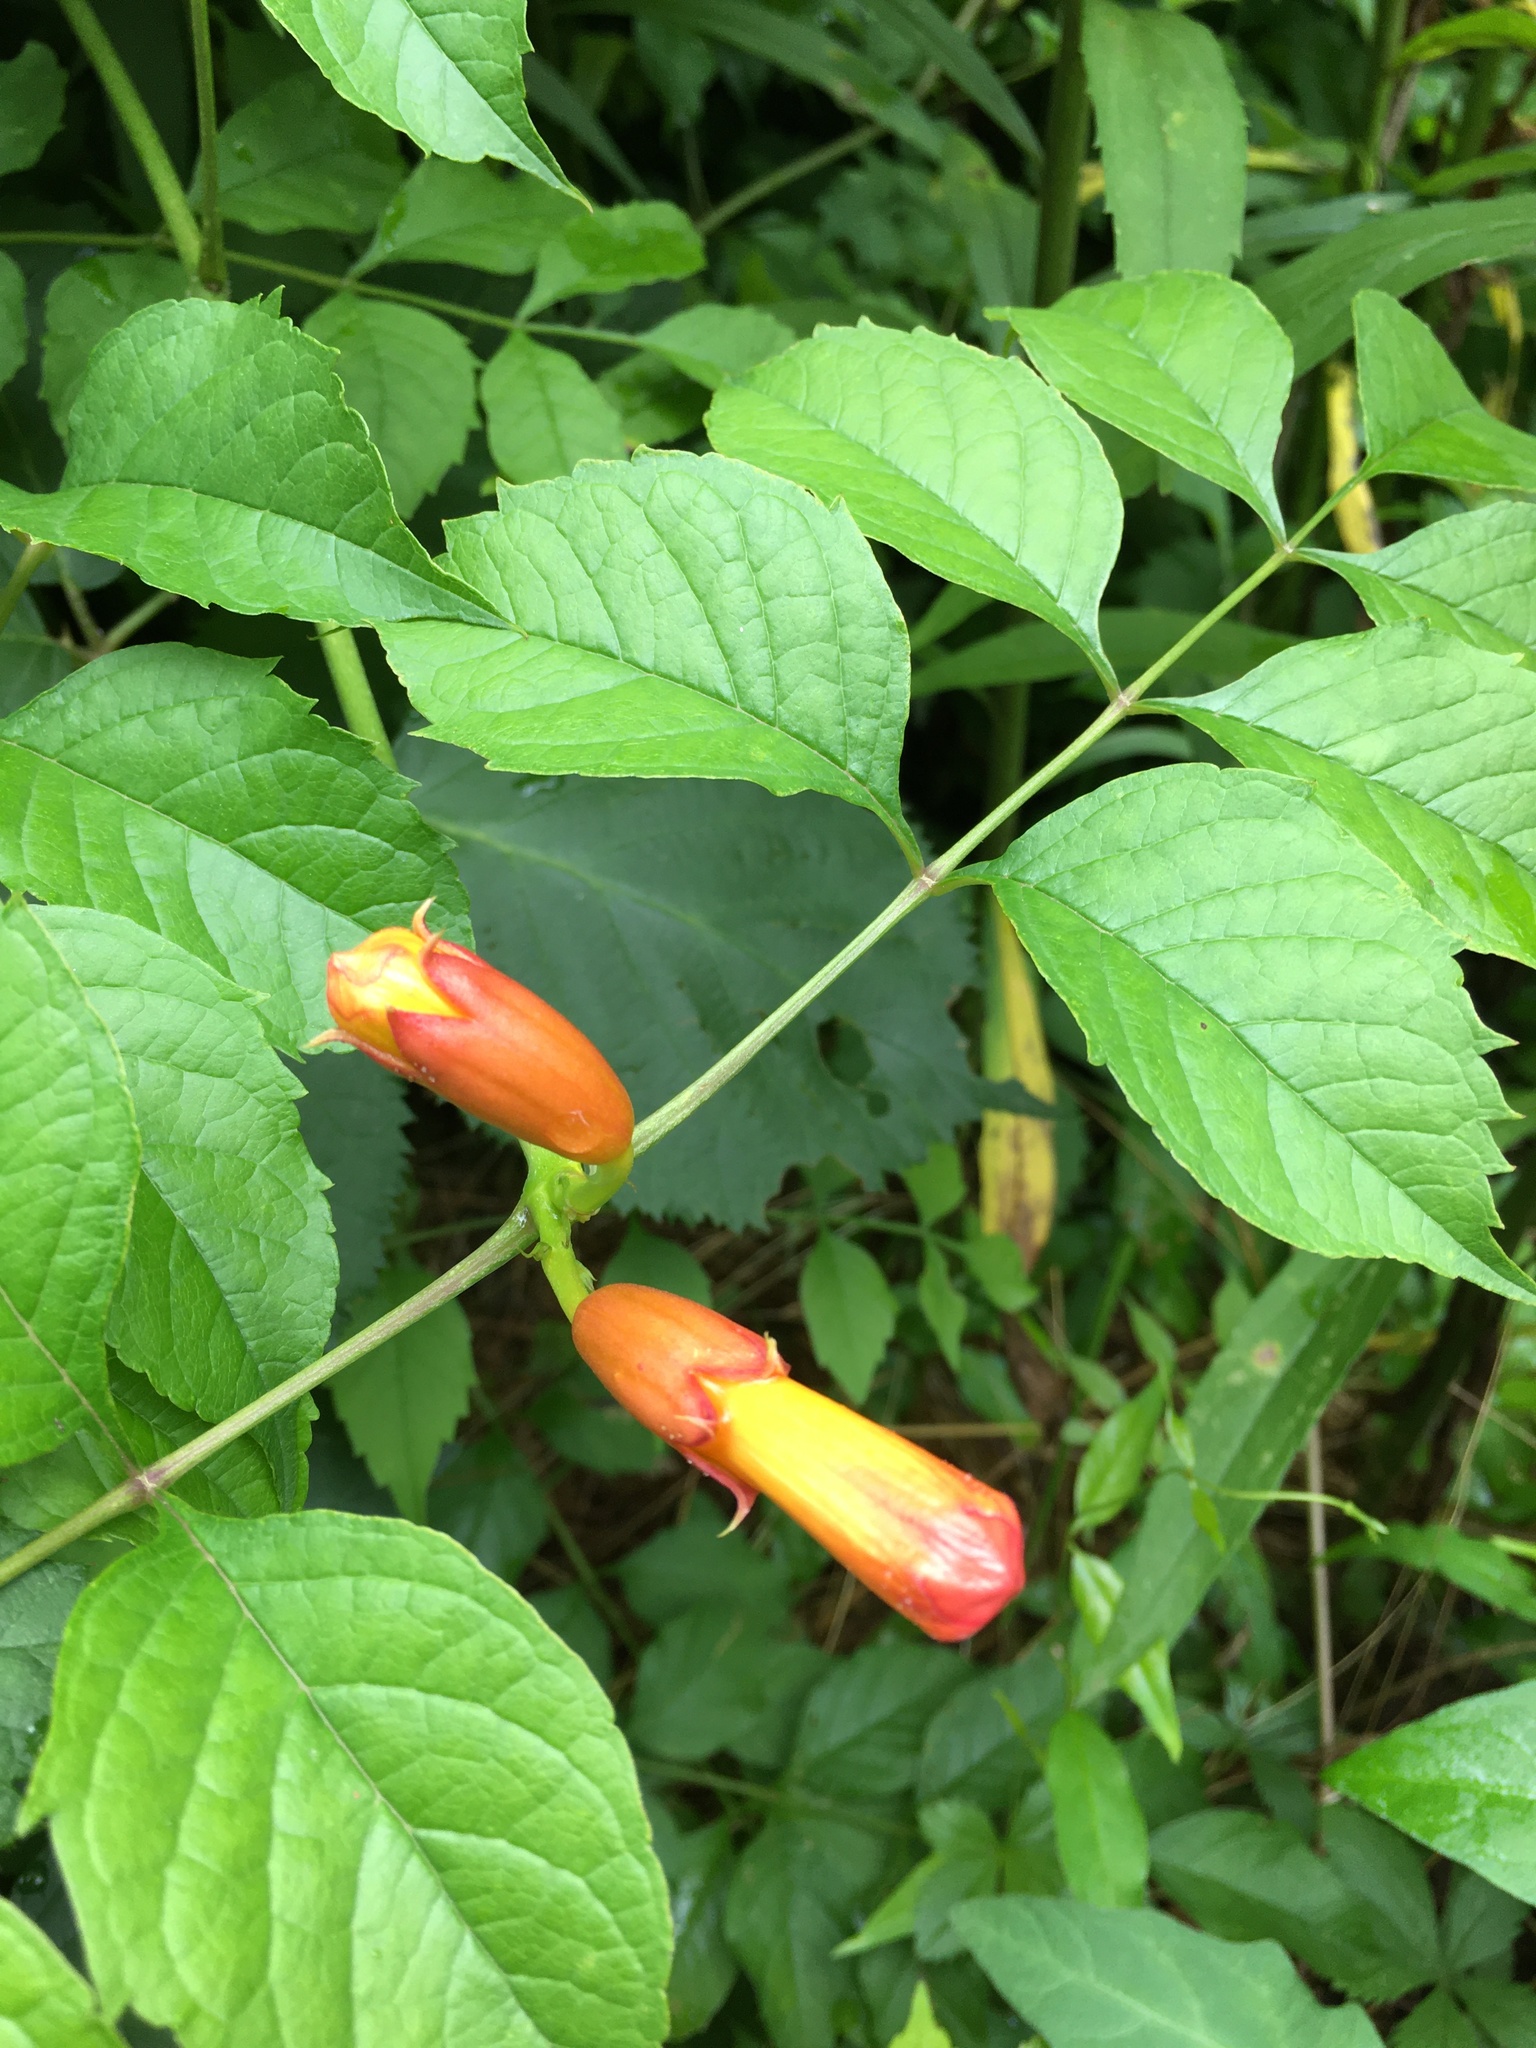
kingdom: Plantae
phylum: Tracheophyta
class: Magnoliopsida
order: Lamiales
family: Bignoniaceae
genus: Campsis
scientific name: Campsis radicans
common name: Trumpet-creeper
